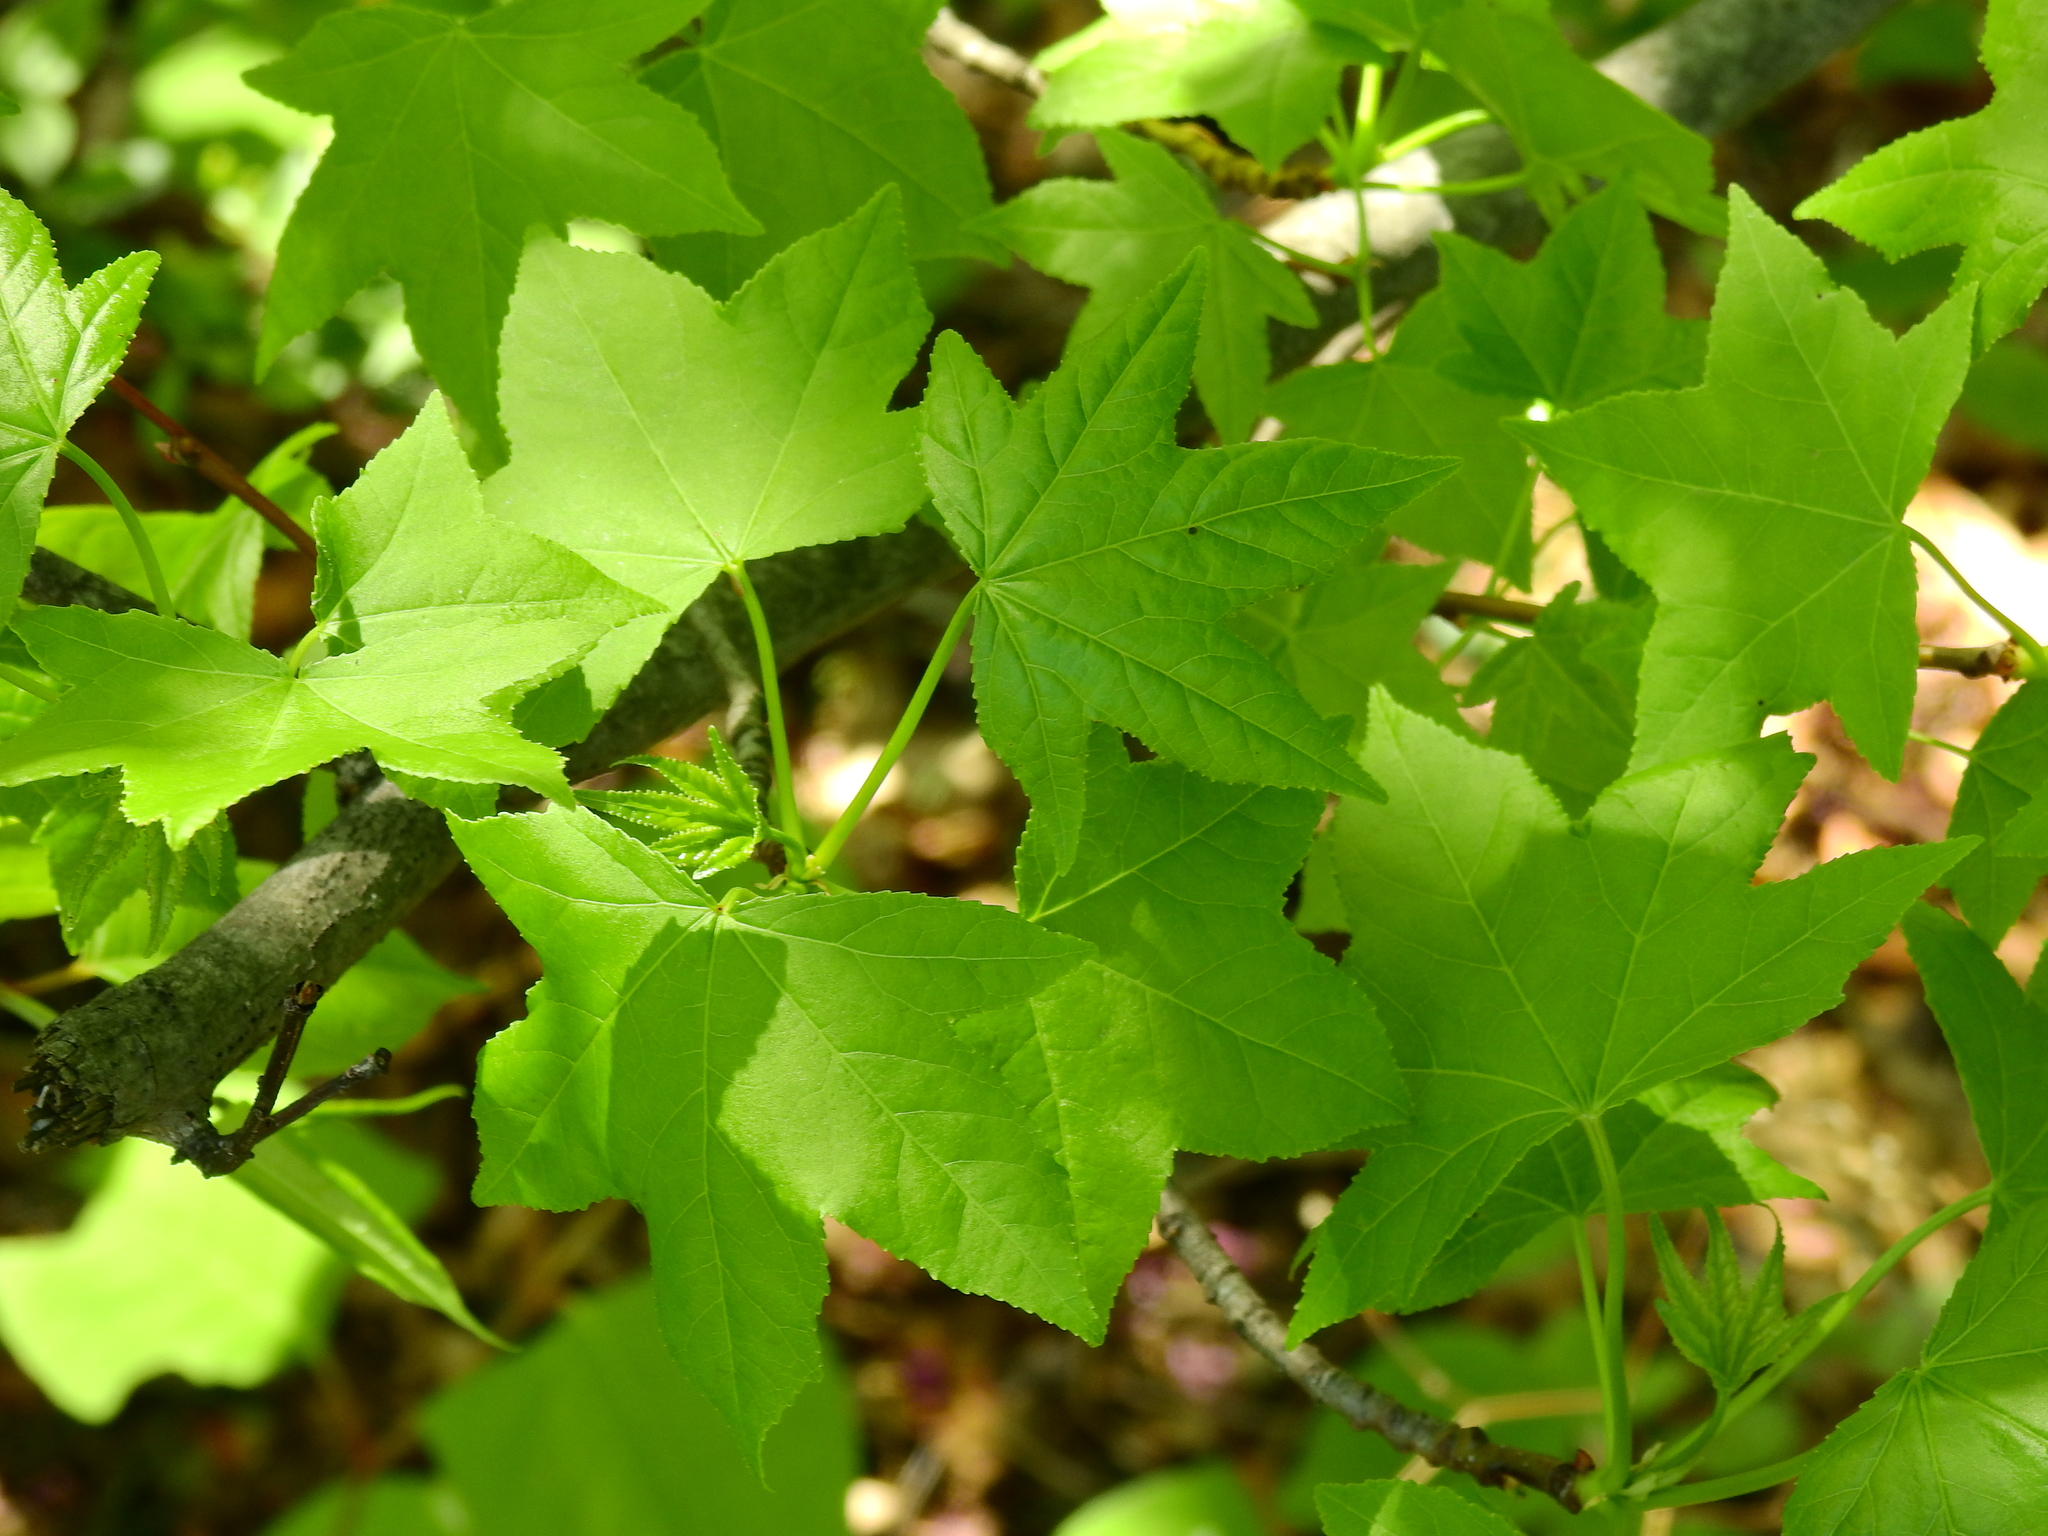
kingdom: Plantae
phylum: Tracheophyta
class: Magnoliopsida
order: Saxifragales
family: Altingiaceae
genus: Liquidambar
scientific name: Liquidambar styraciflua
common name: Sweet gum
